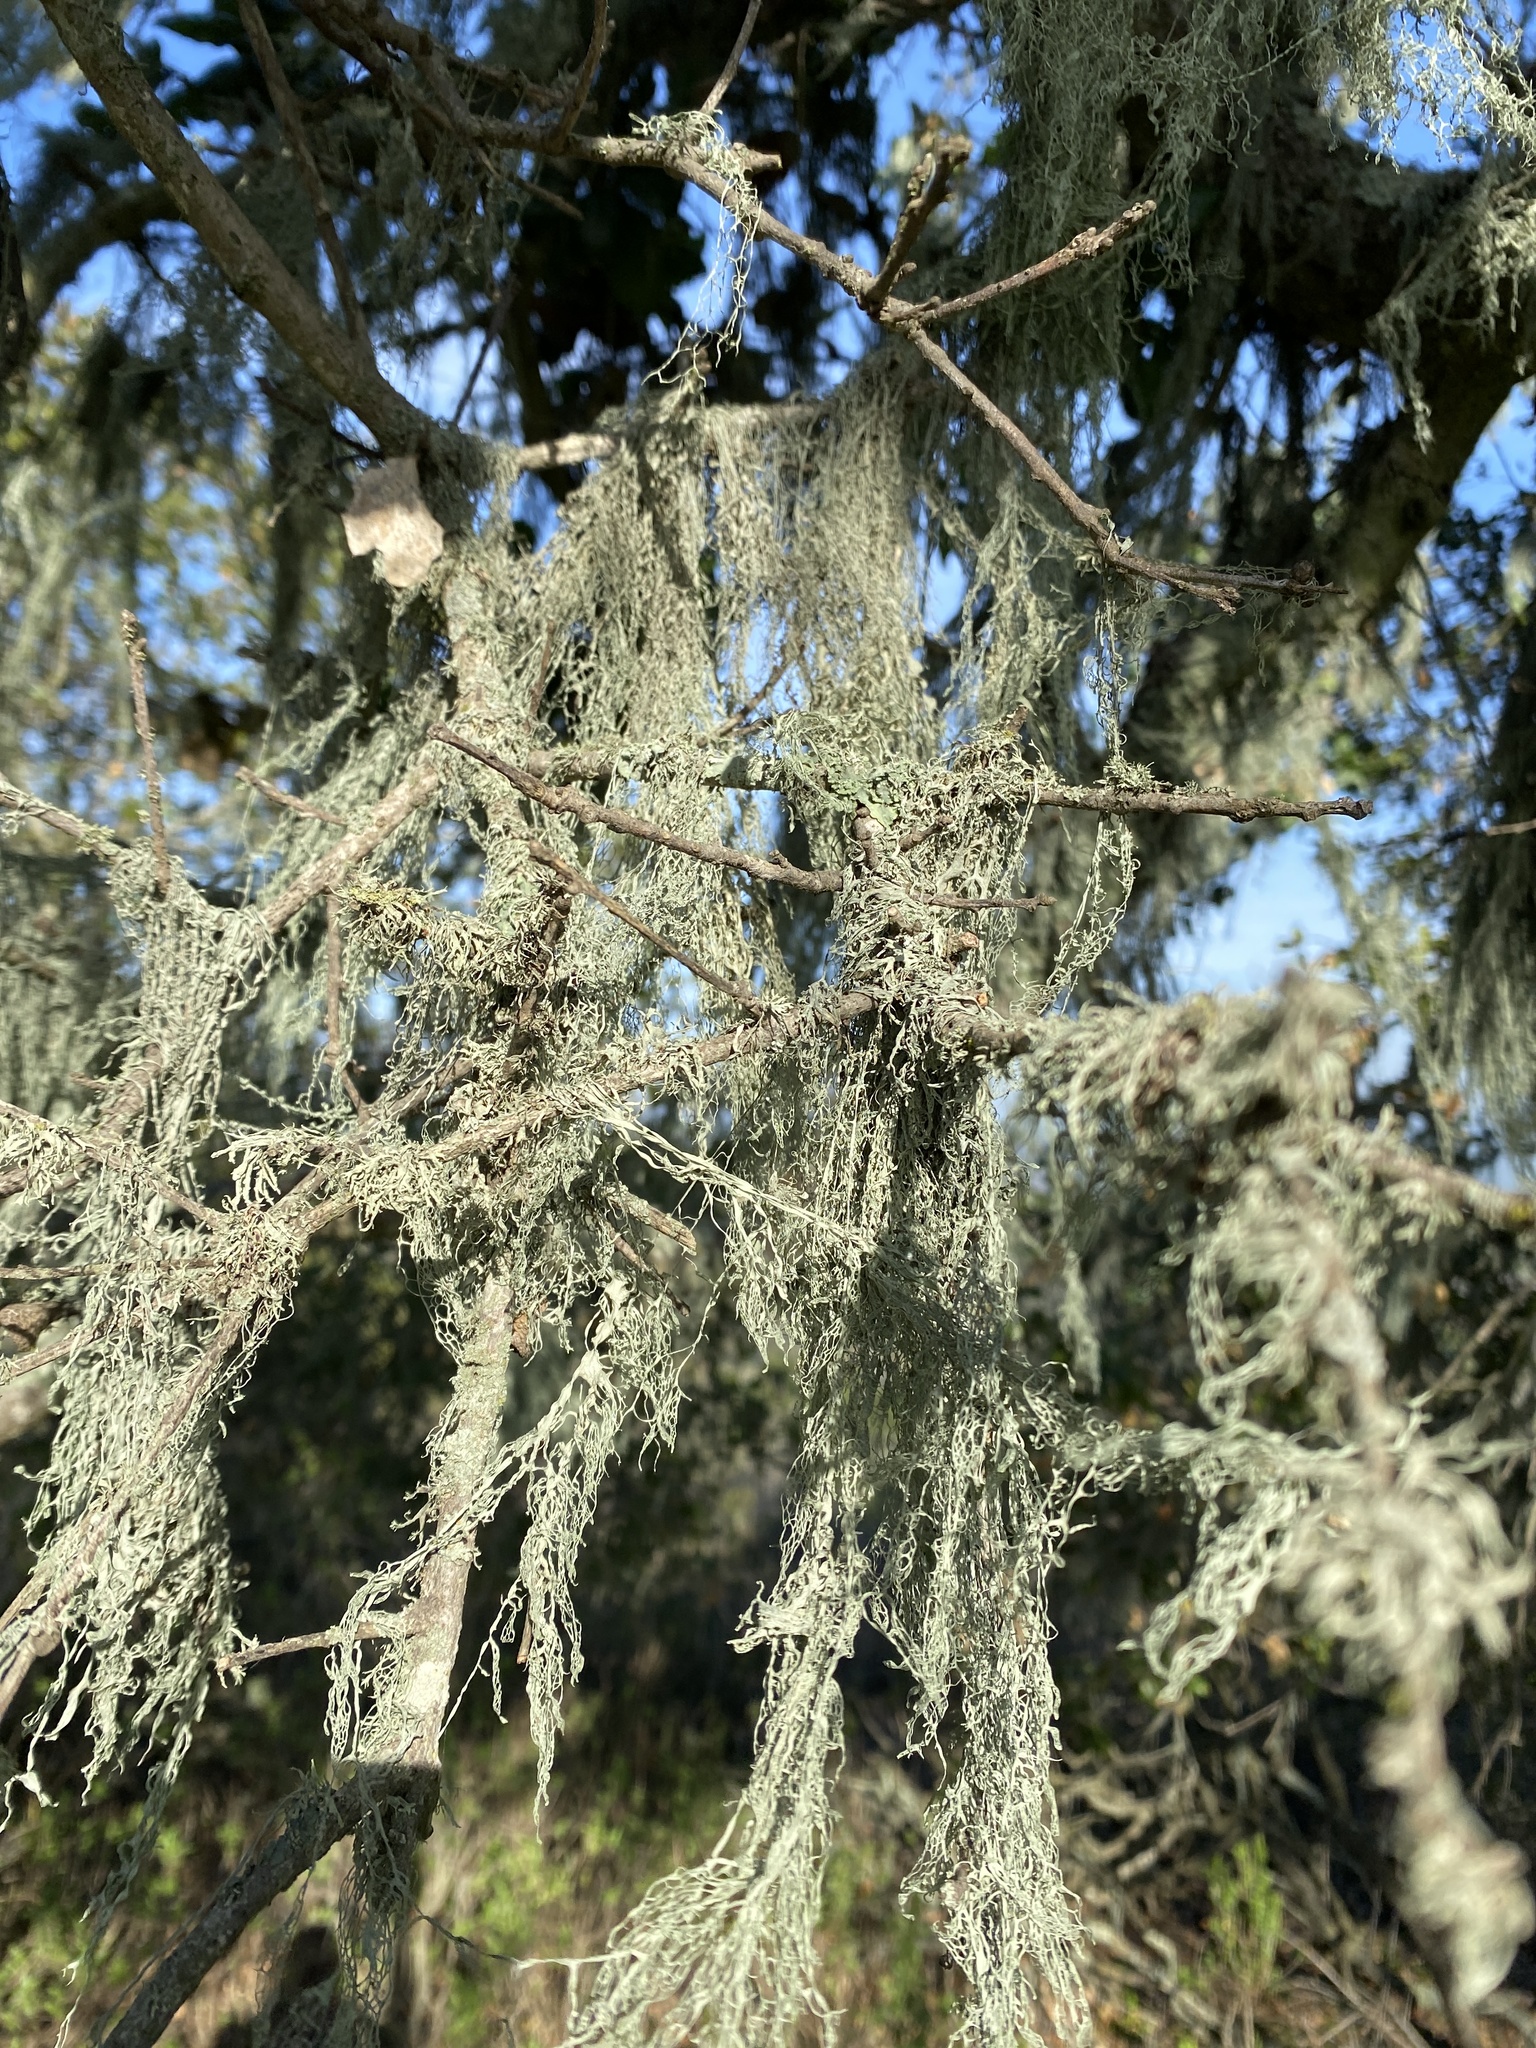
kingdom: Fungi
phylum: Ascomycota
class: Lecanoromycetes
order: Lecanorales
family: Ramalinaceae
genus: Ramalina
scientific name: Ramalina menziesii
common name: Lace lichen
